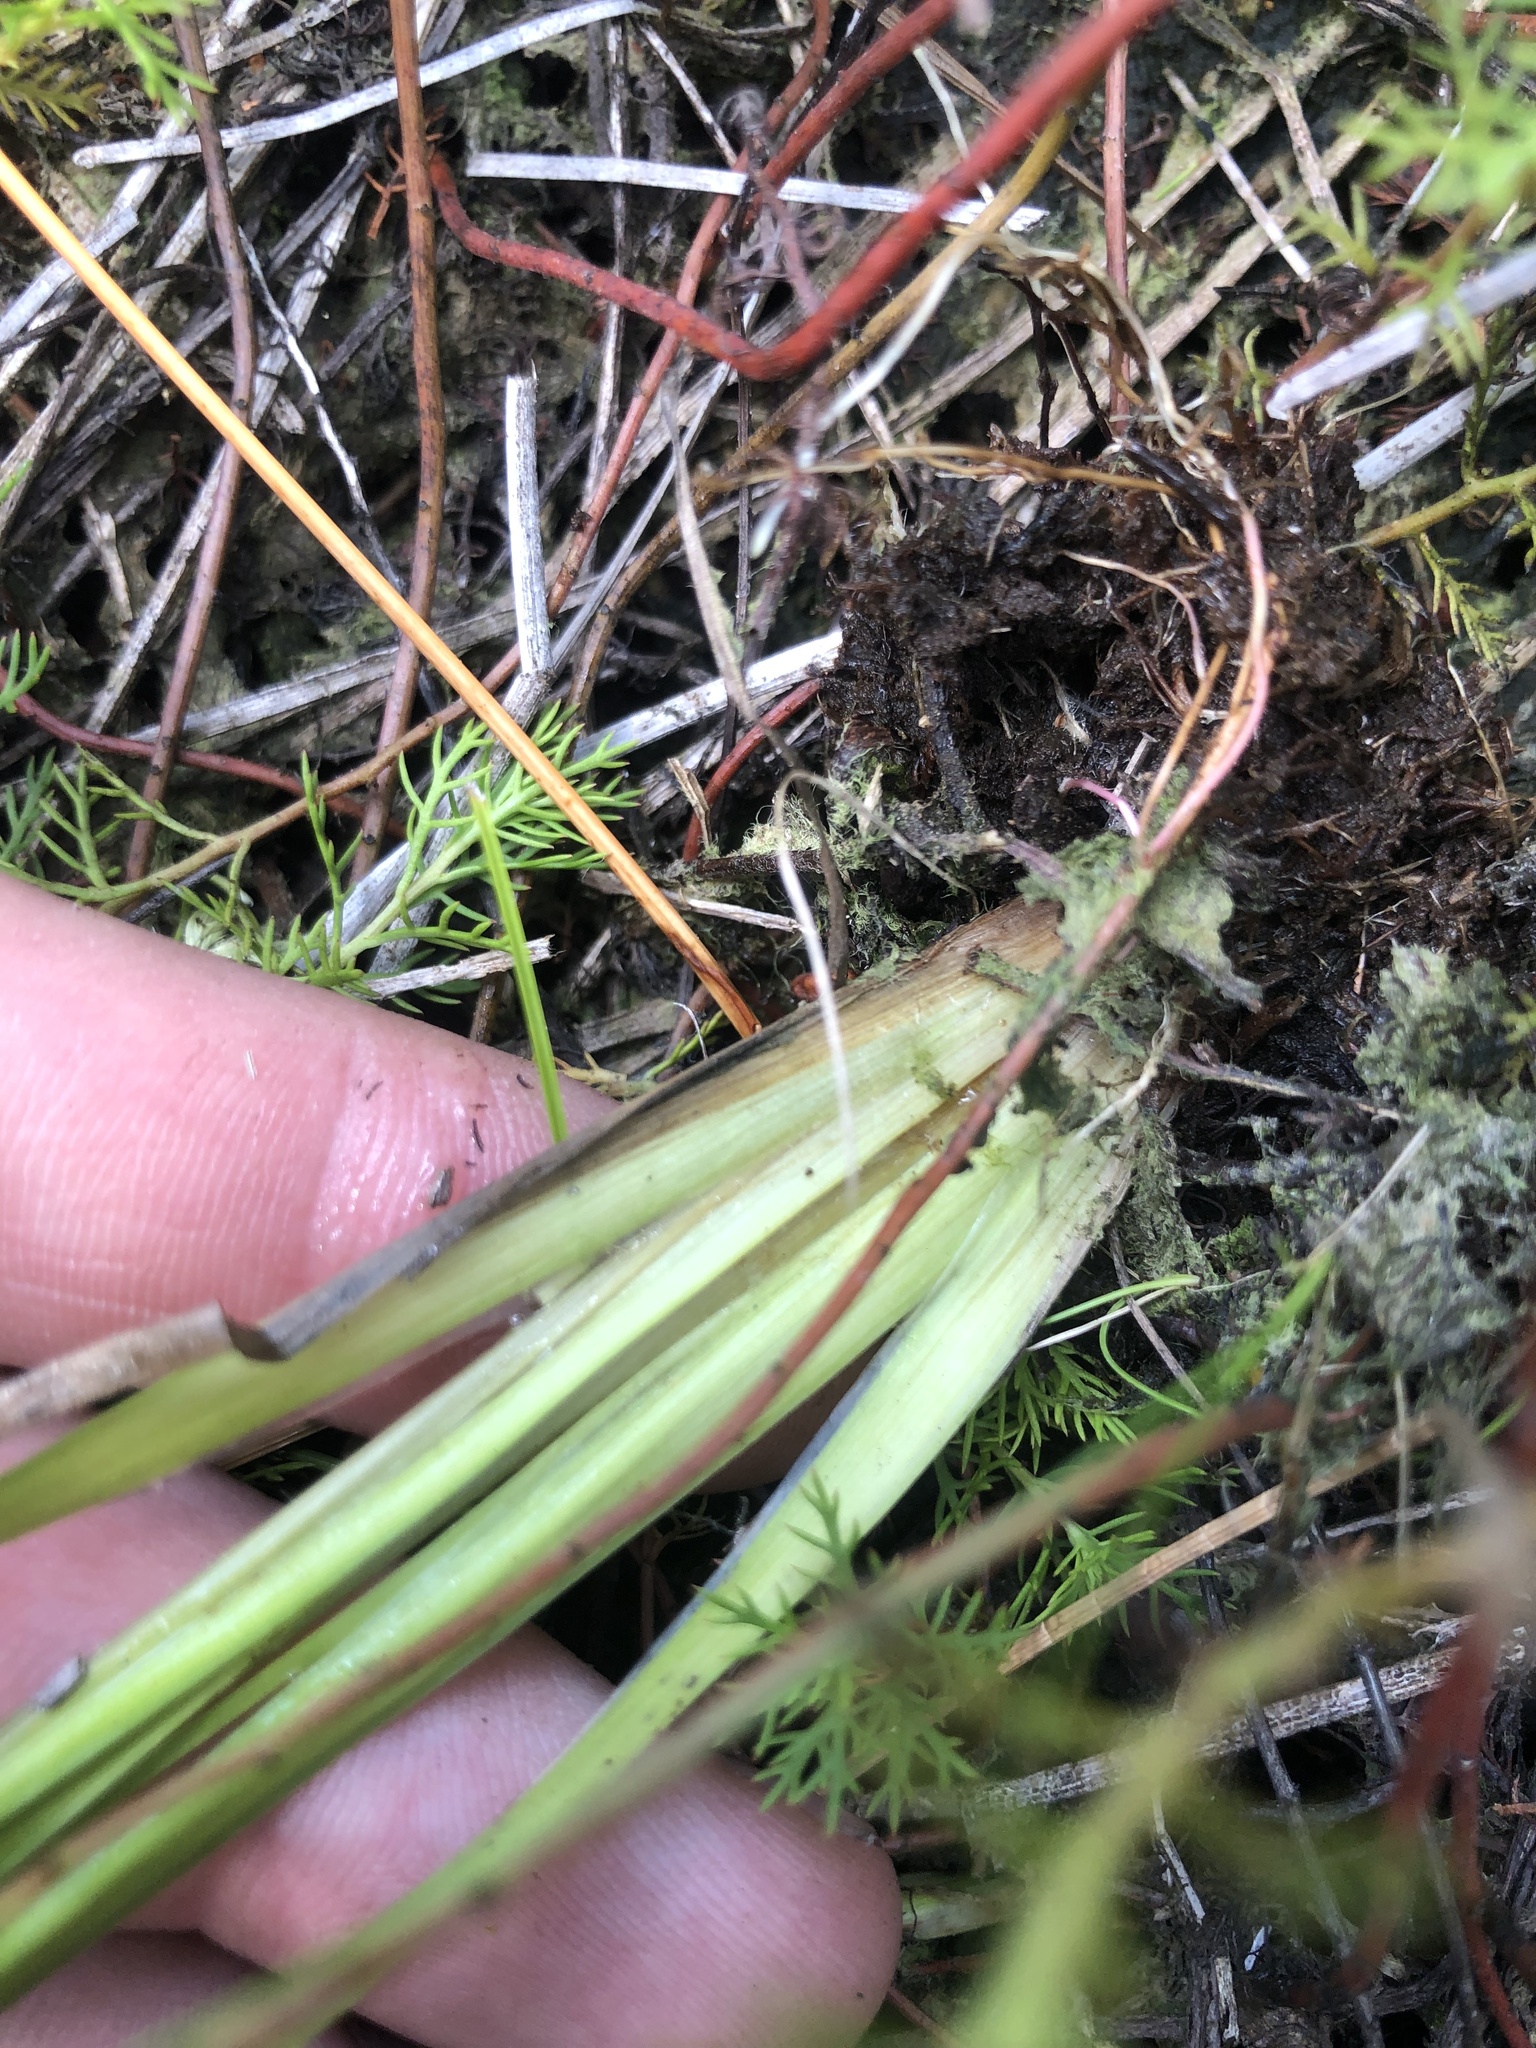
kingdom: Plantae
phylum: Tracheophyta
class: Liliopsida
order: Poales
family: Xyridaceae
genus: Xyris
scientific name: Xyris difformis
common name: Bog yellow-eyed-grass
